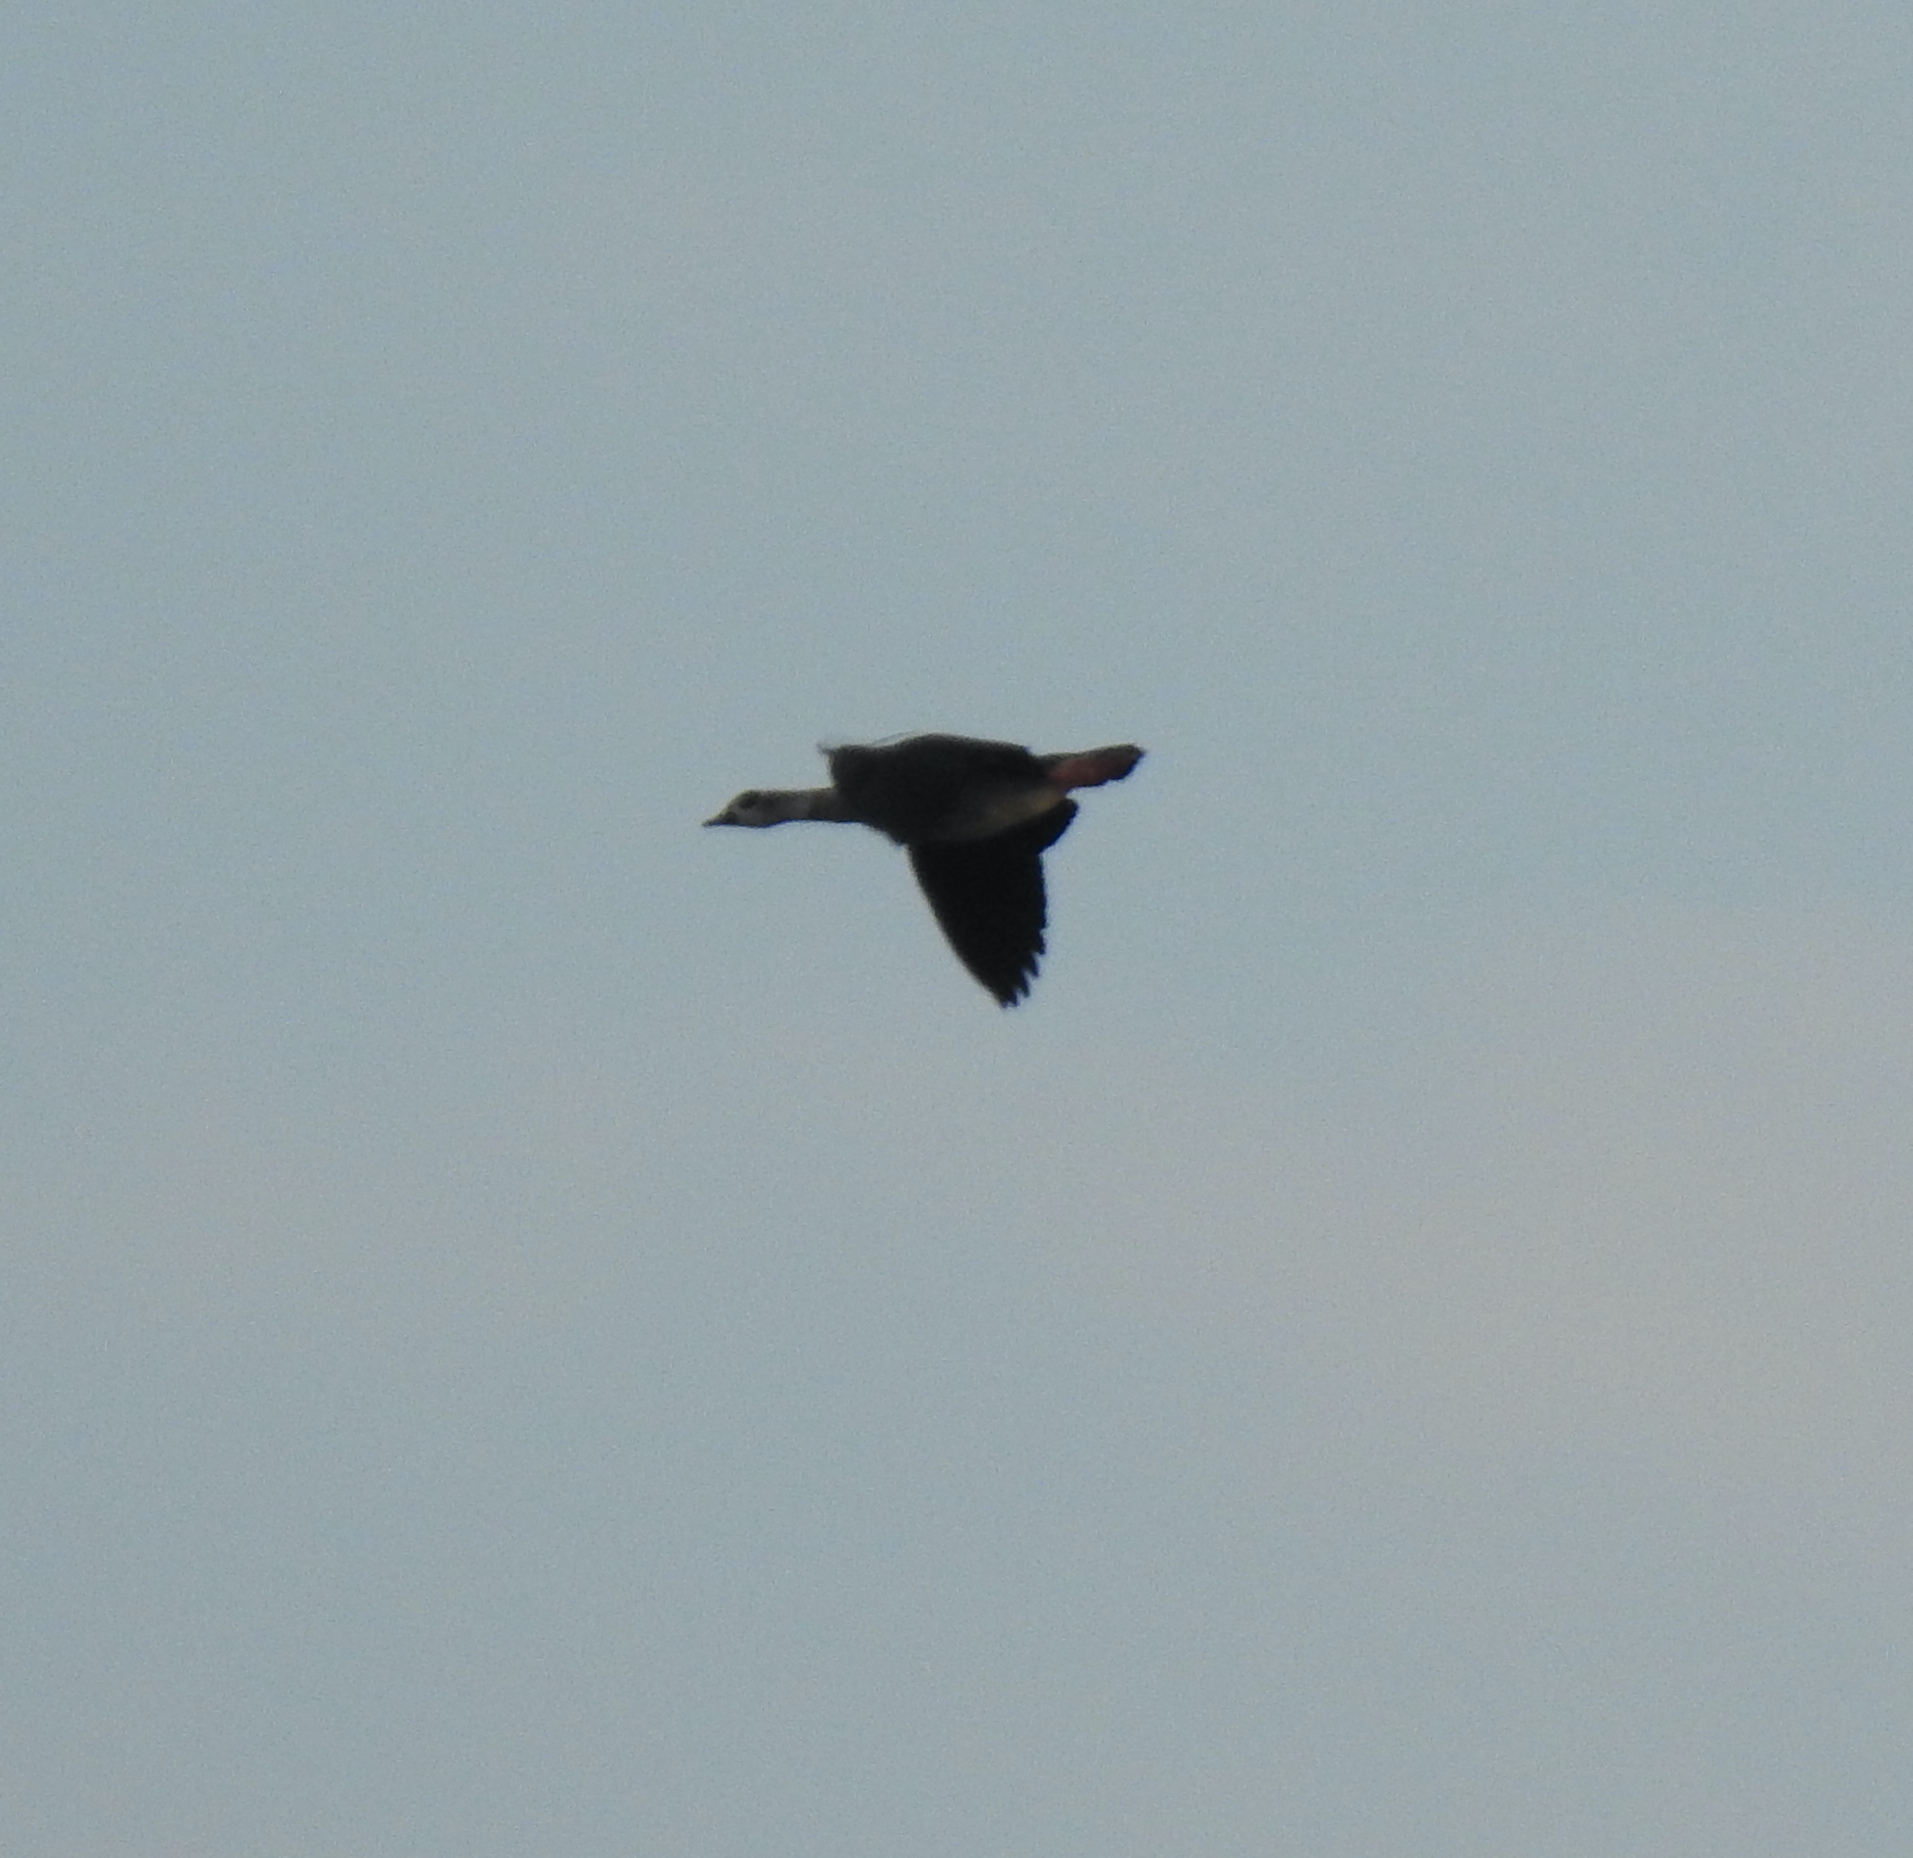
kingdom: Animalia
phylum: Chordata
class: Aves
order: Anseriformes
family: Anatidae
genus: Alopochen
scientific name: Alopochen aegyptiaca
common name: Egyptian goose
